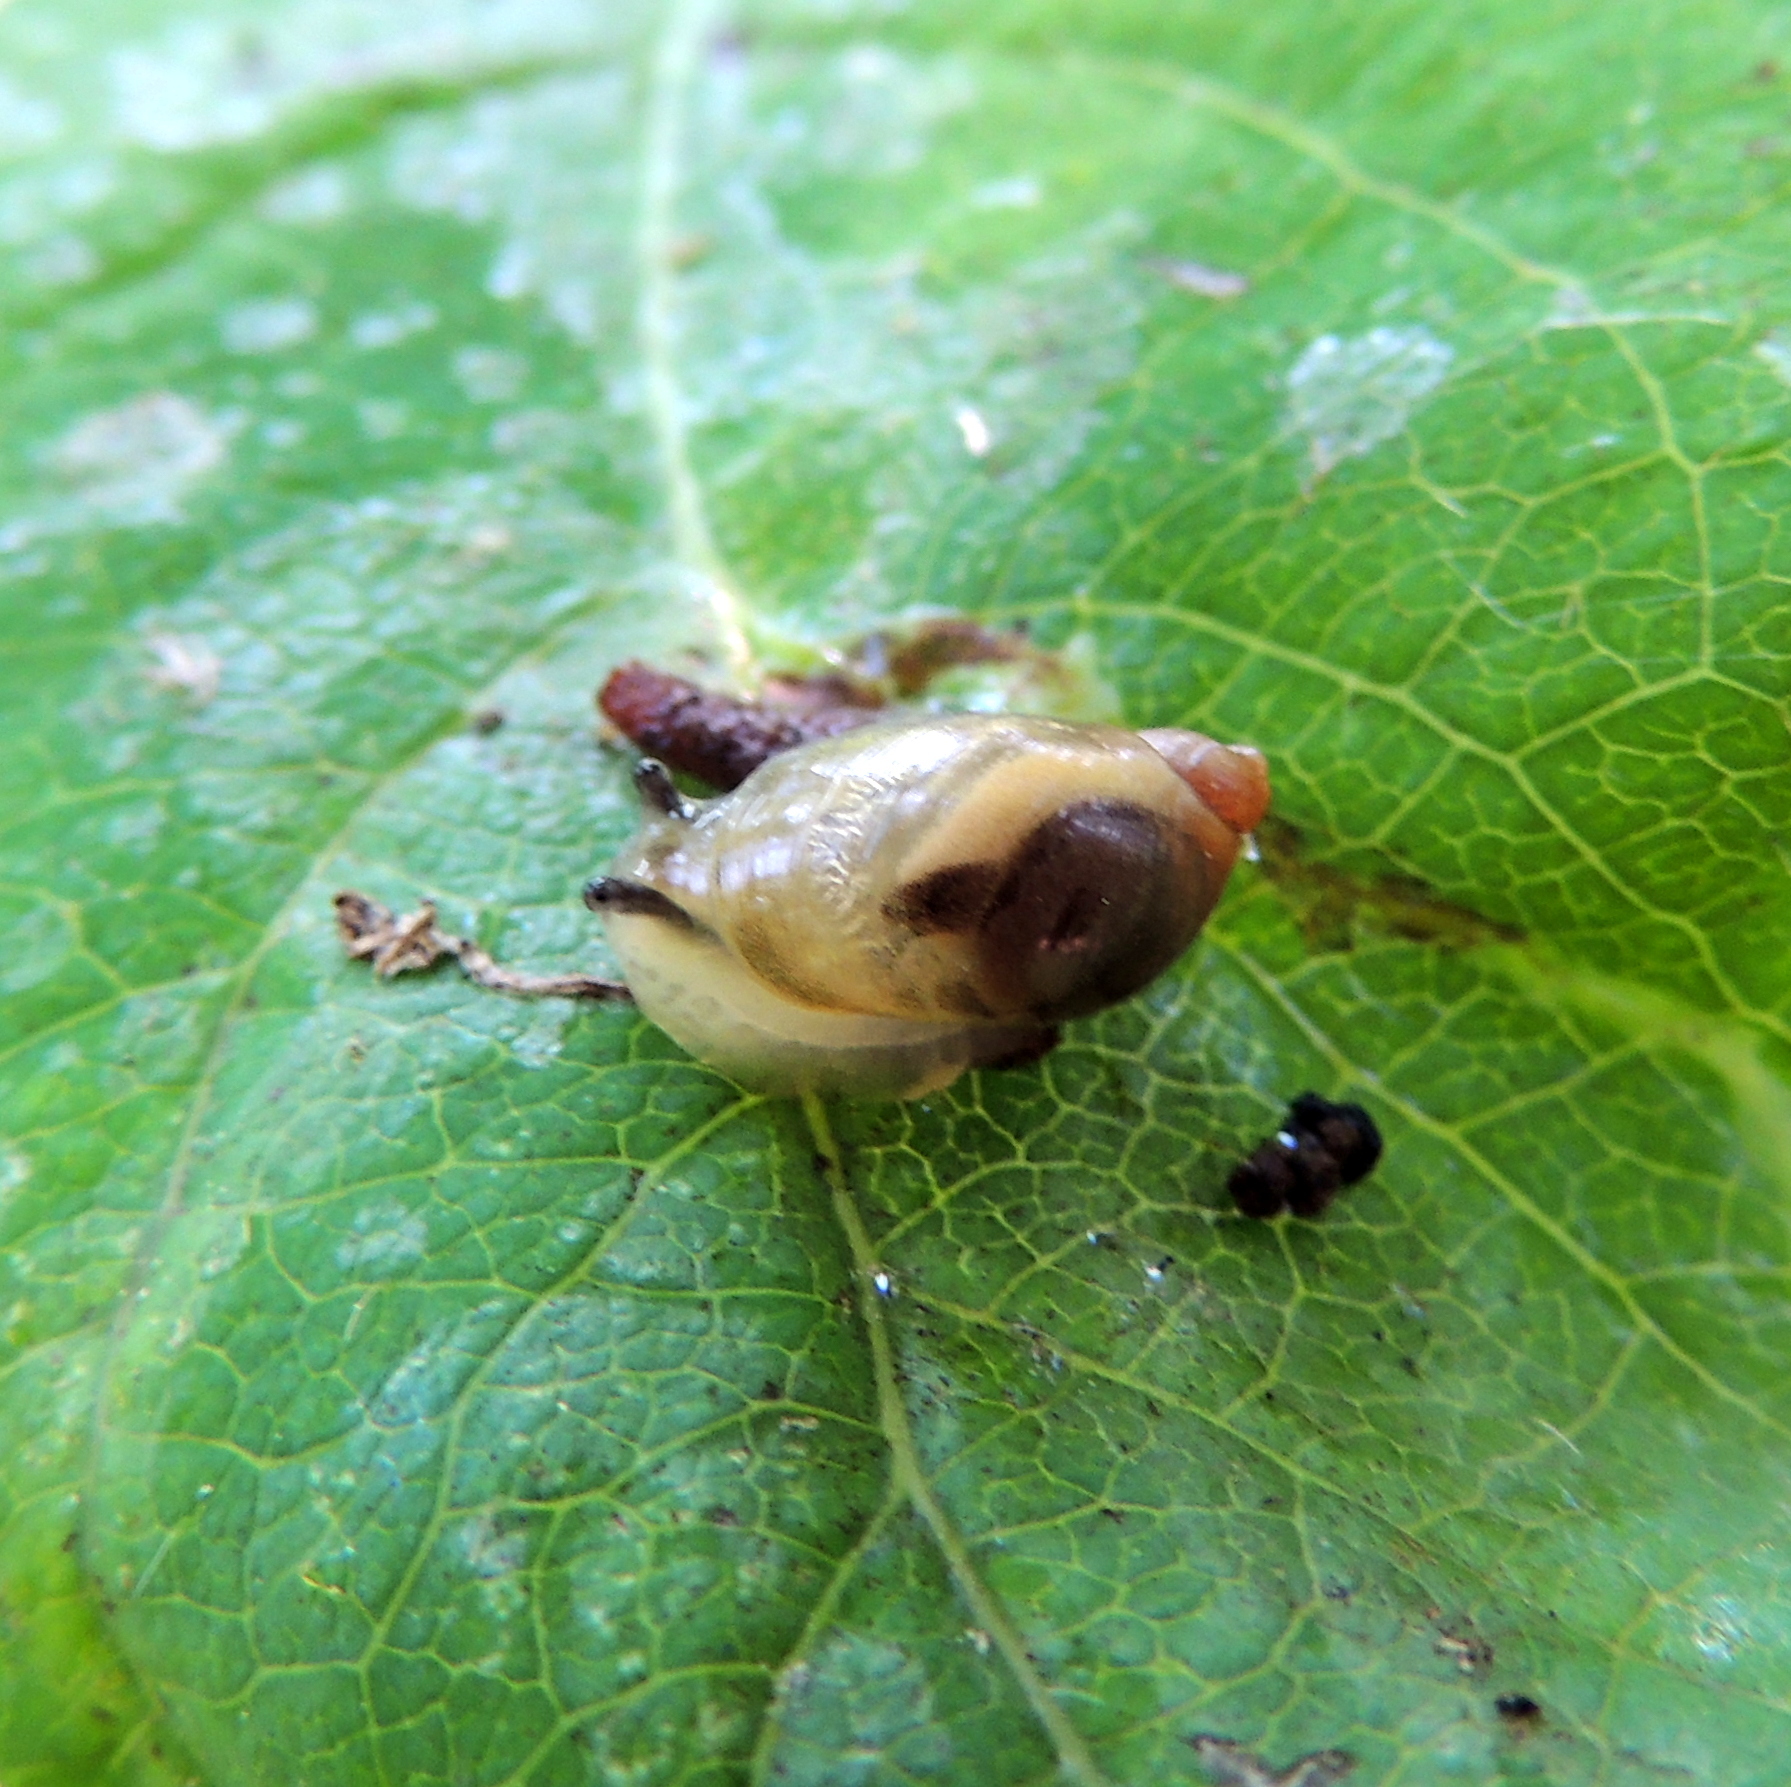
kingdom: Animalia
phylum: Mollusca
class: Gastropoda
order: Stylommatophora
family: Succineidae
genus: Succinea
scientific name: Succinea putris
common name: European ambersnail
